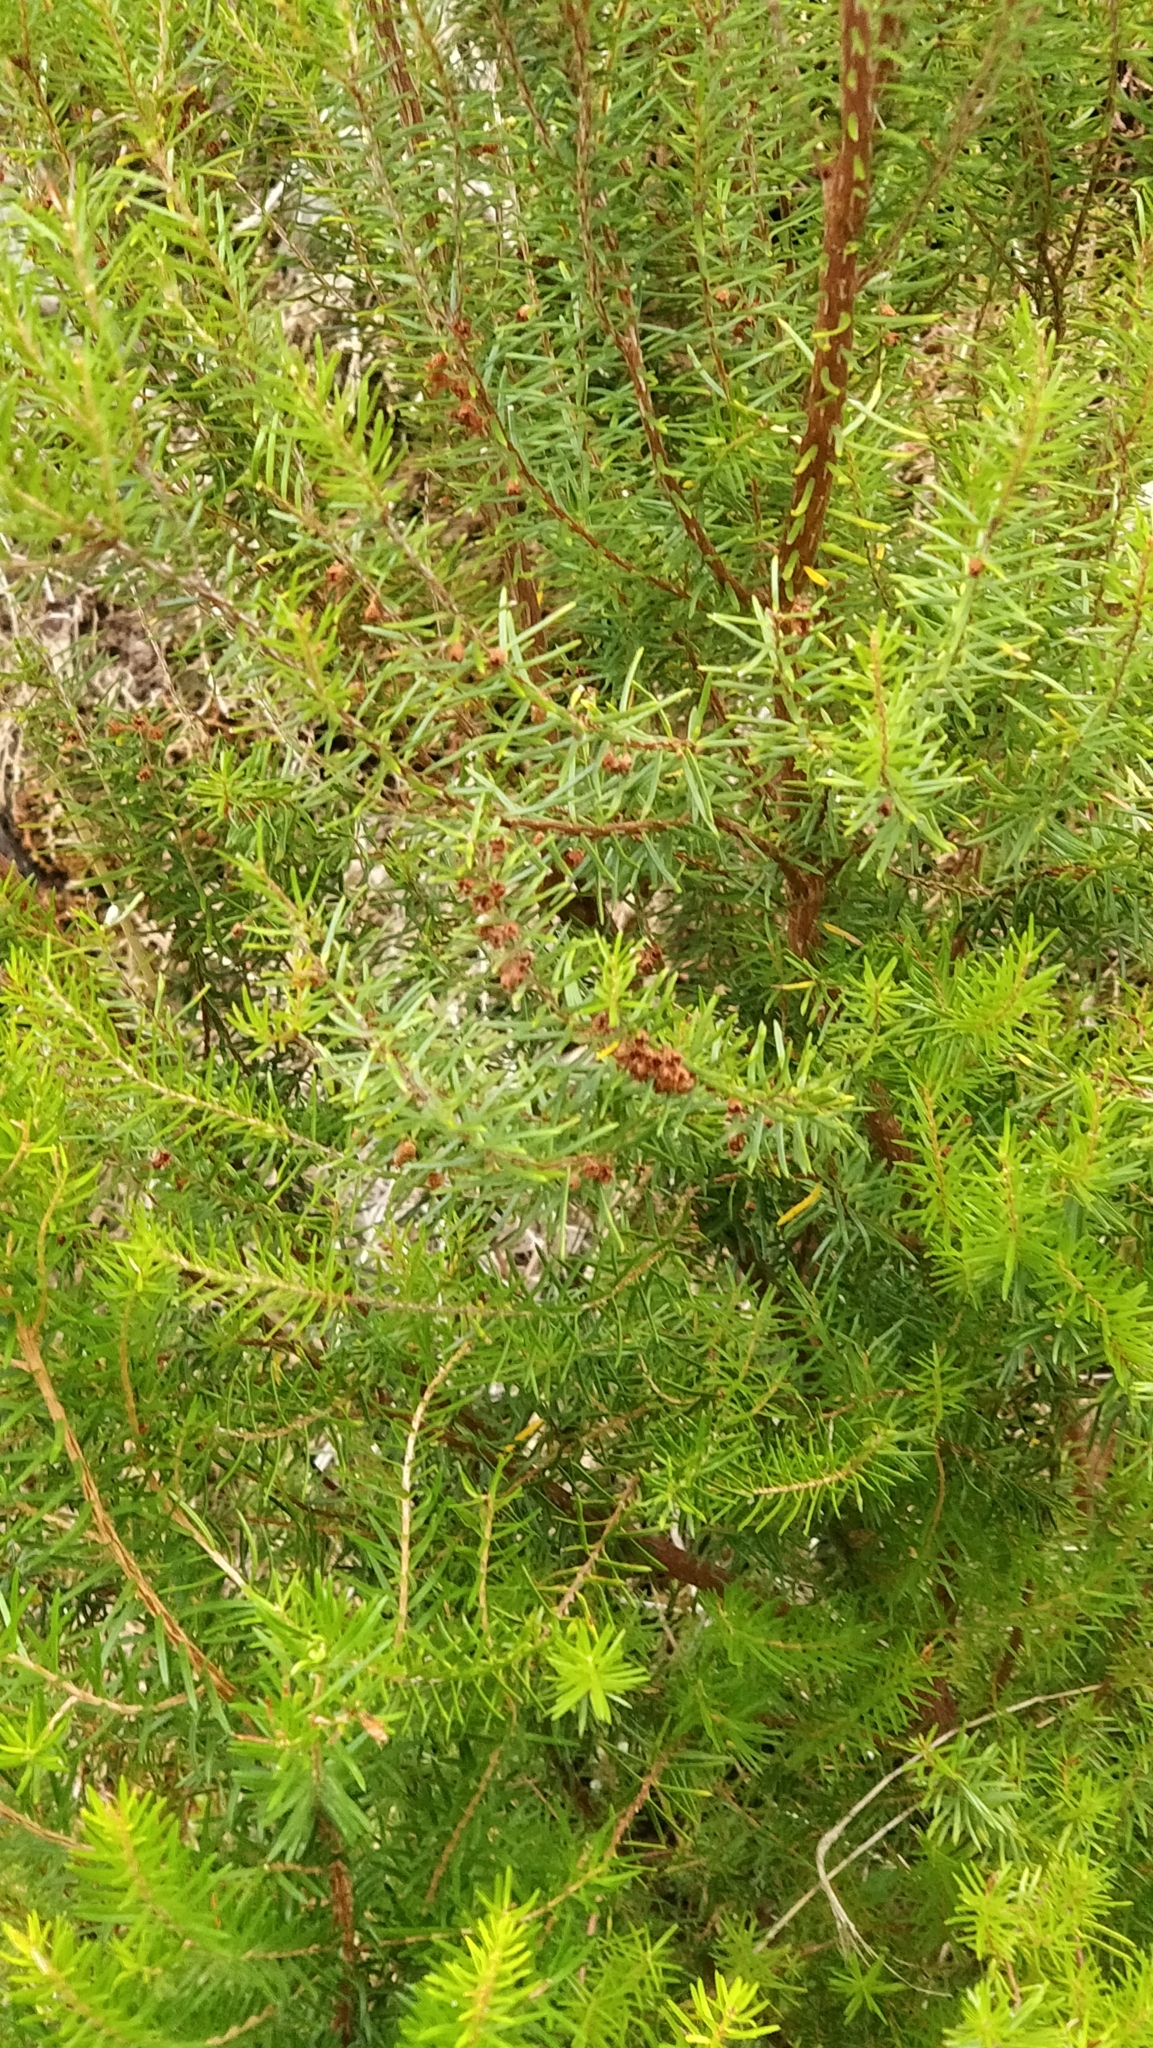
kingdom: Plantae
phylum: Tracheophyta
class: Magnoliopsida
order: Ericales
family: Ericaceae
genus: Erica
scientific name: Erica platycodon
